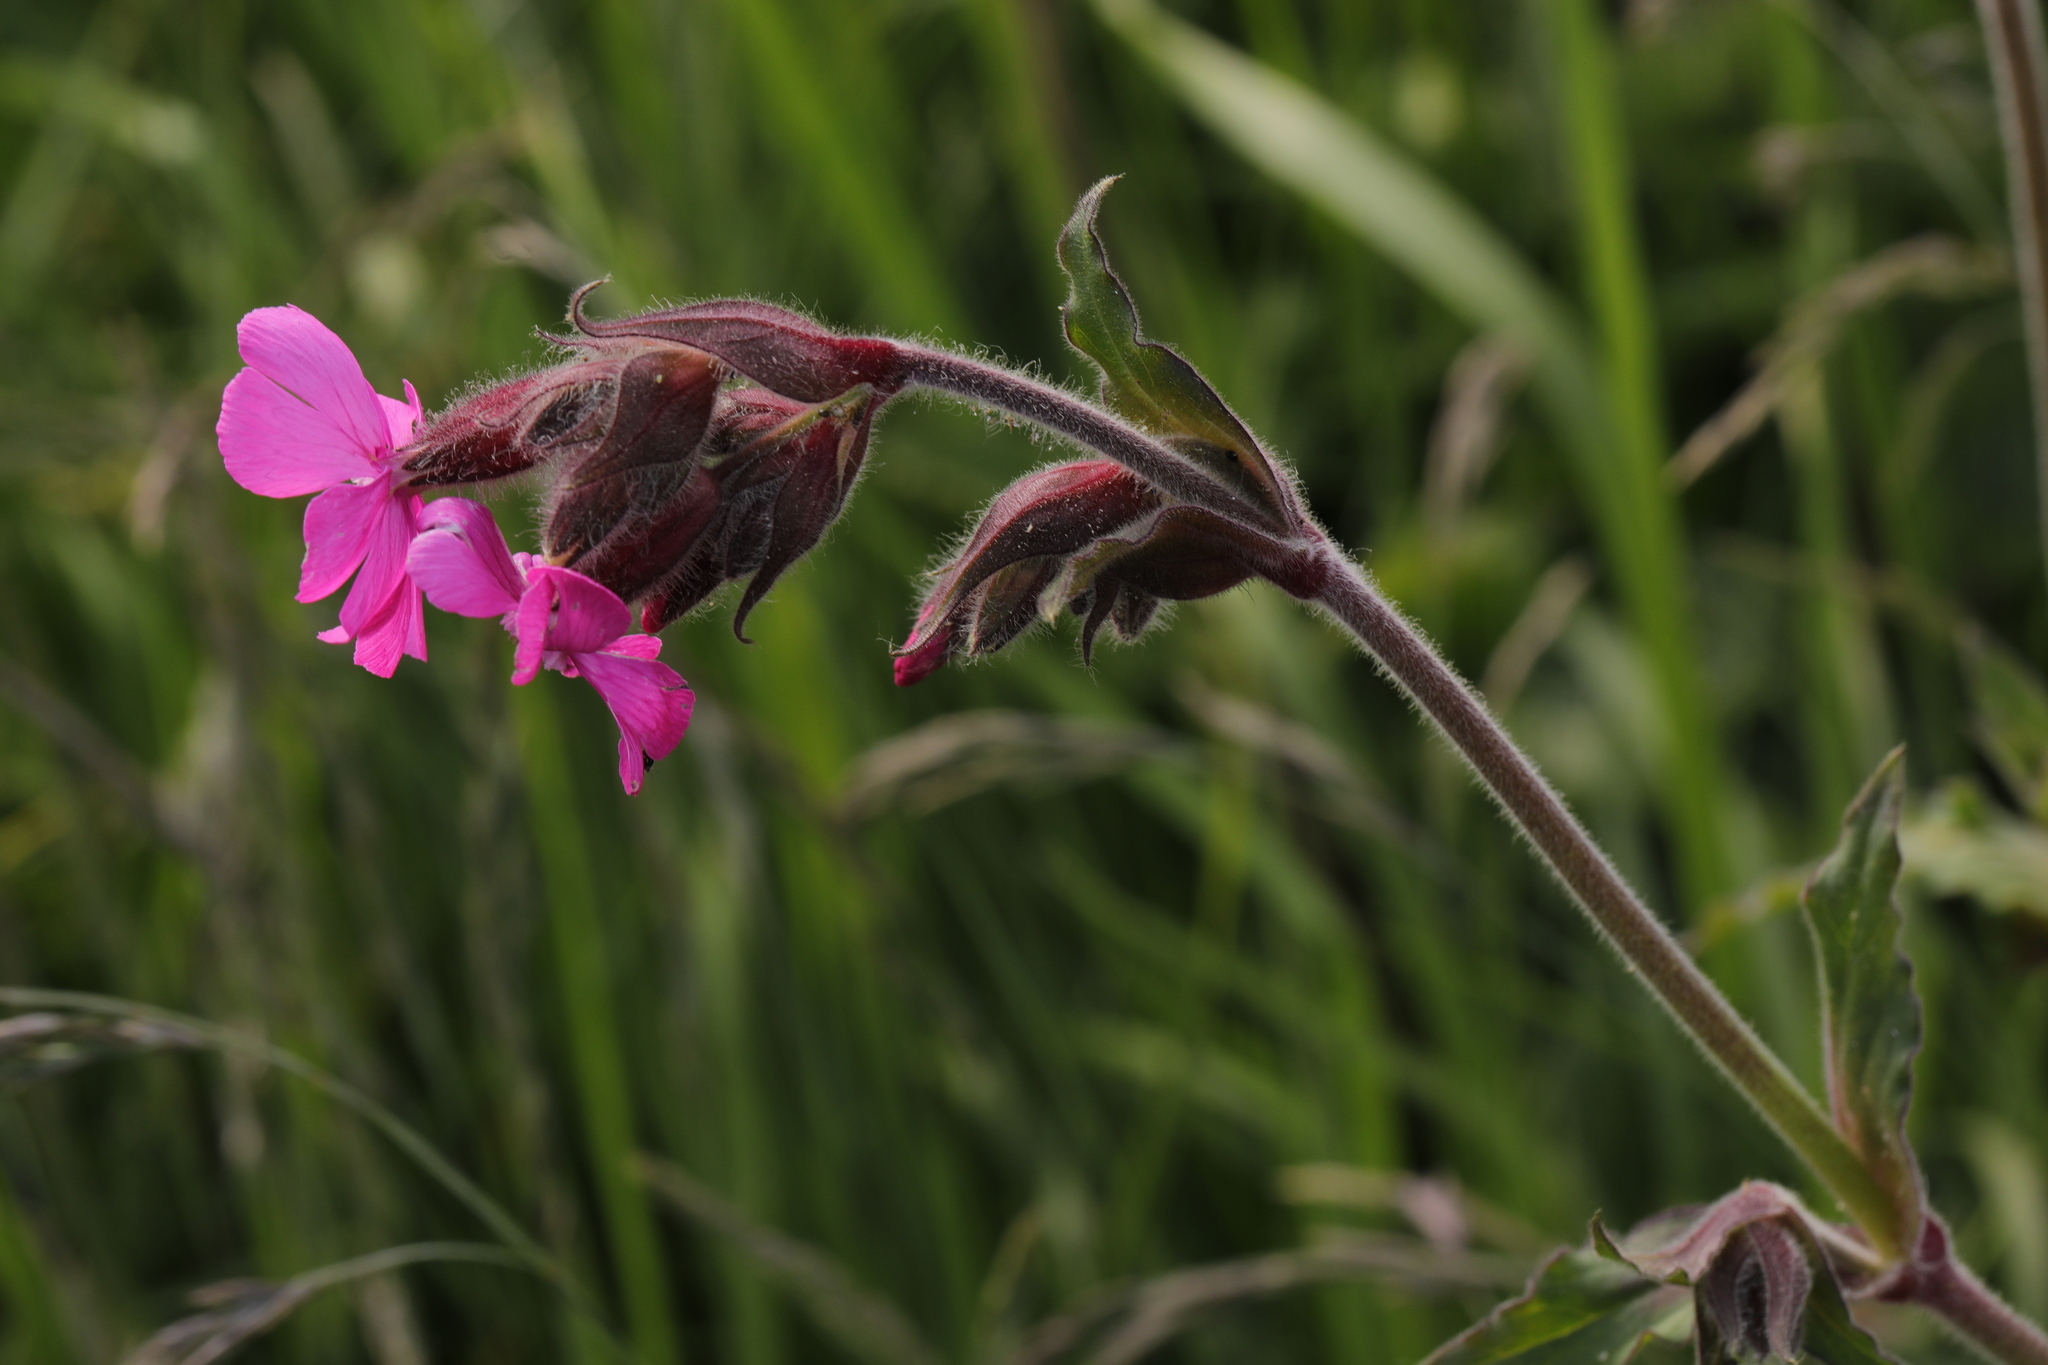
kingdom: Plantae
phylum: Tracheophyta
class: Magnoliopsida
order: Caryophyllales
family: Caryophyllaceae
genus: Silene
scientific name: Silene dioica
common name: Red campion
